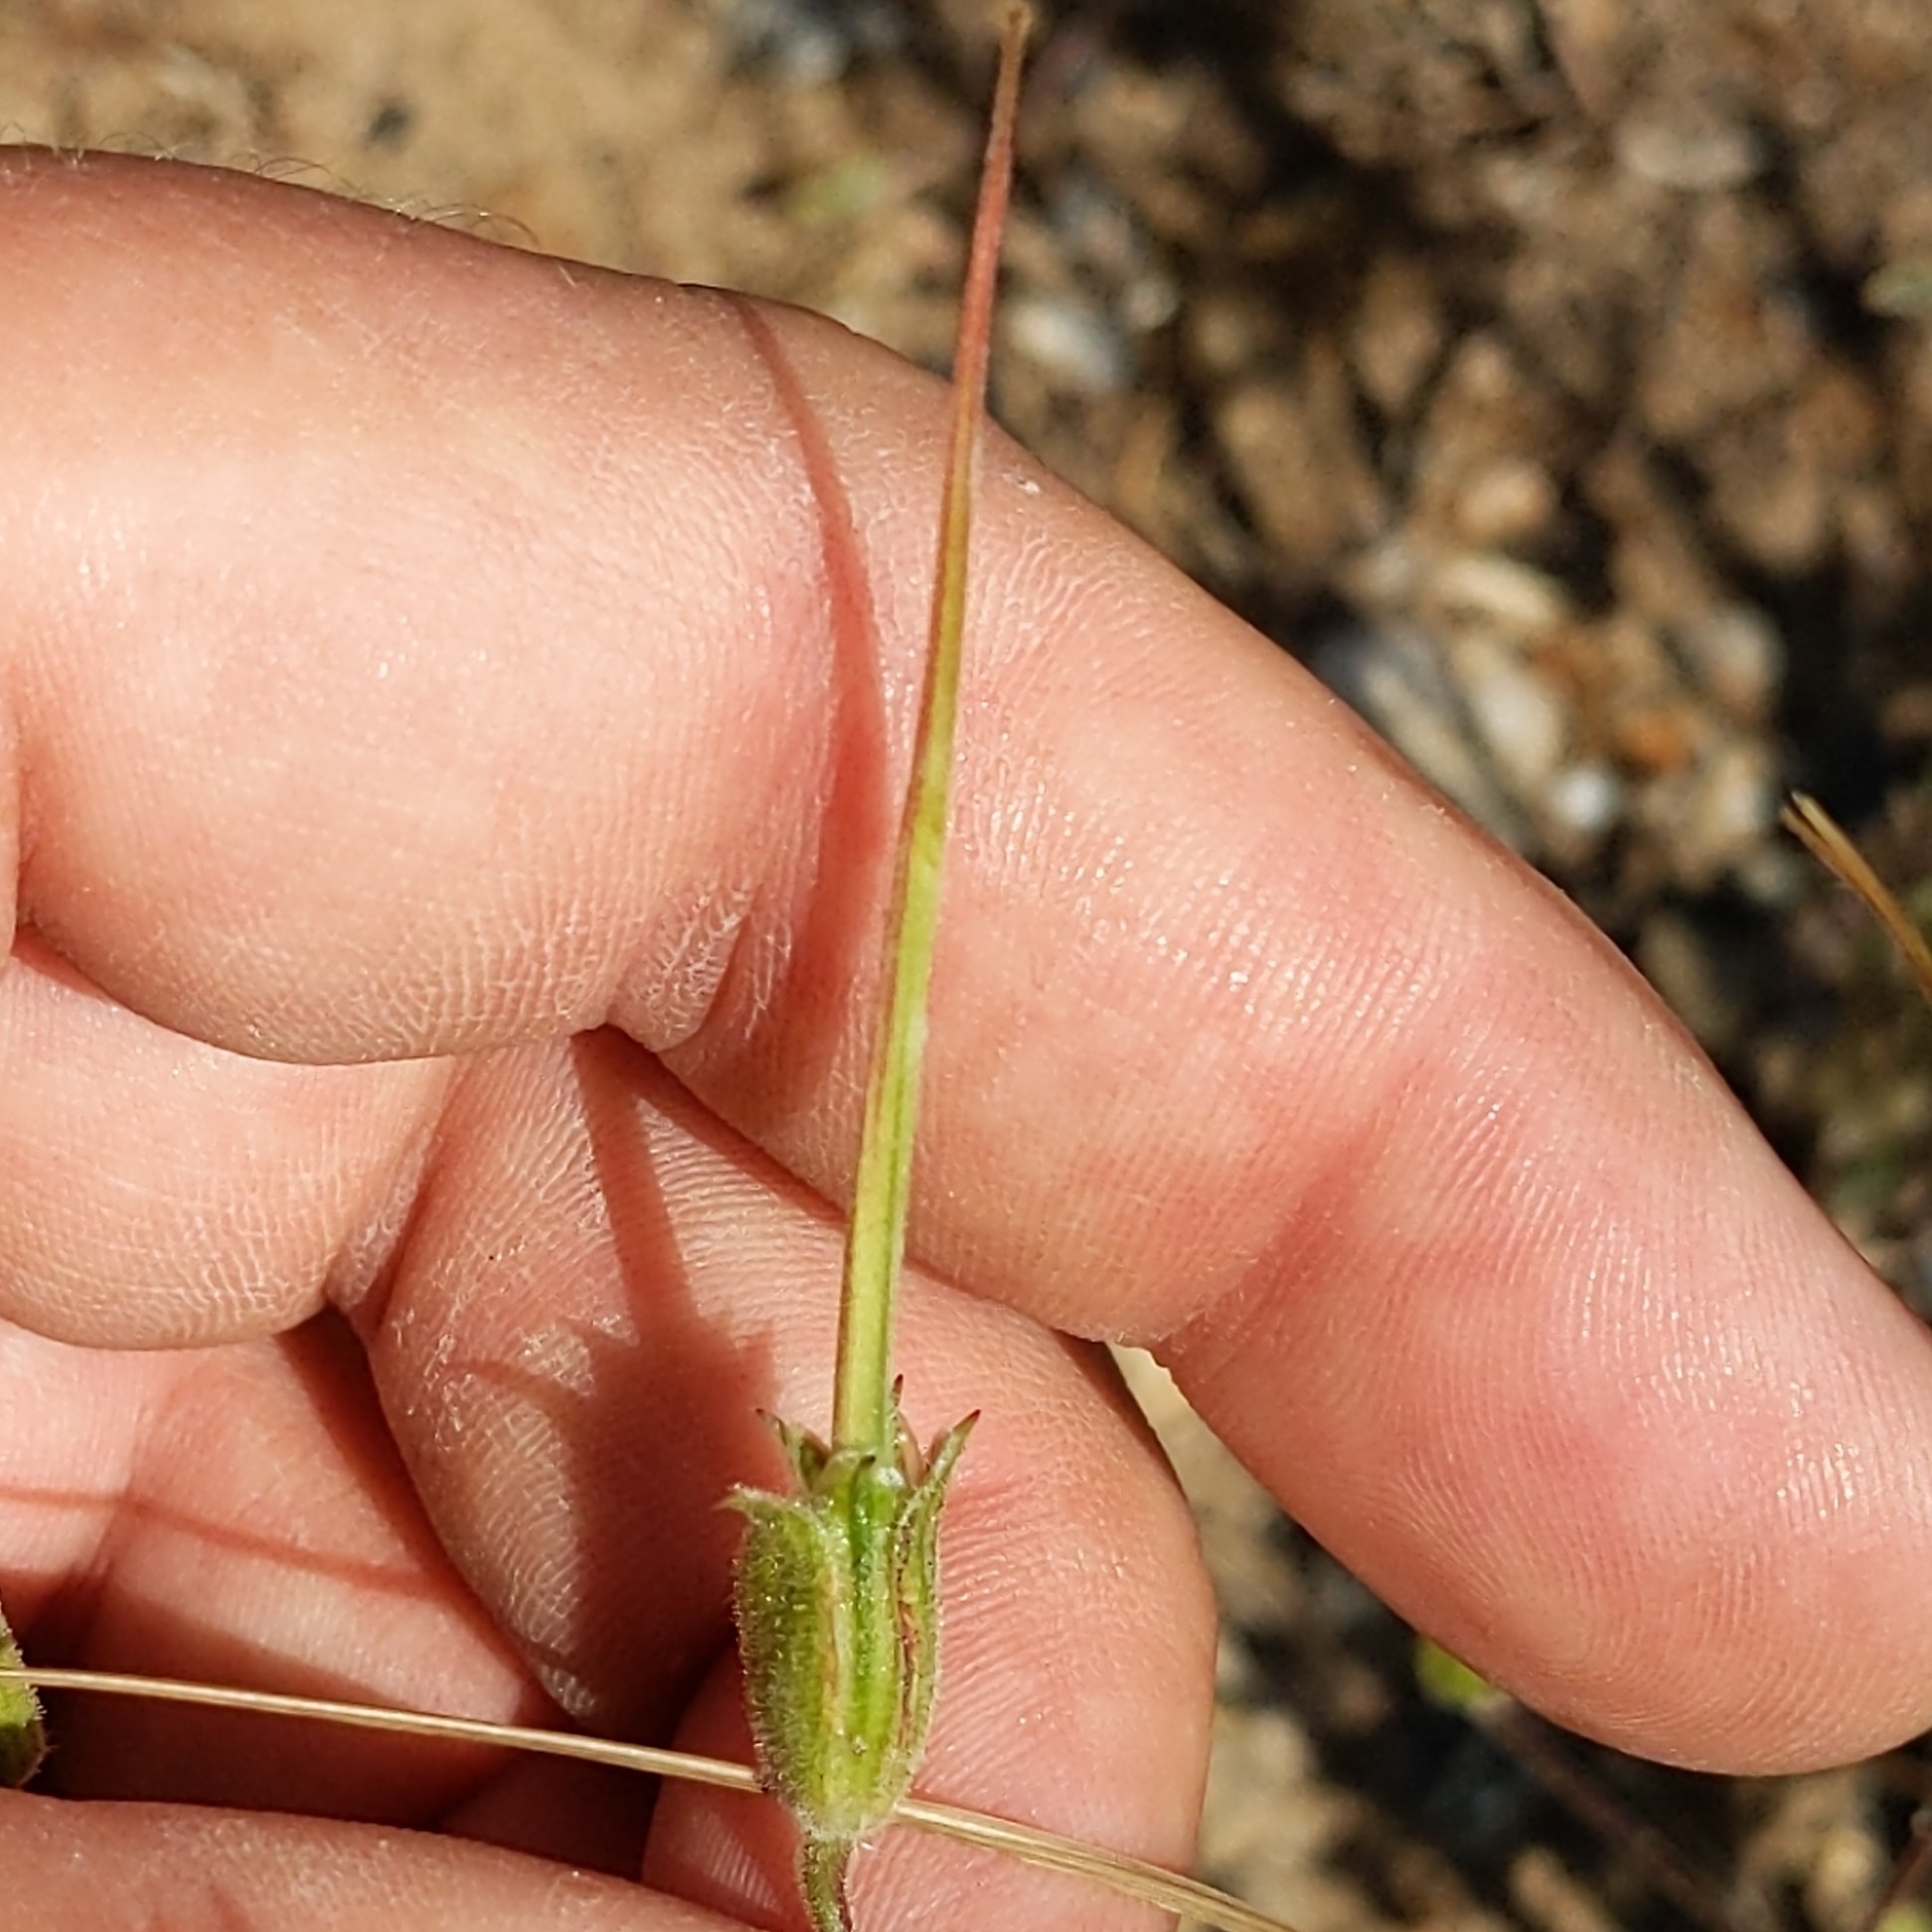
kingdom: Plantae
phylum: Tracheophyta
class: Magnoliopsida
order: Geraniales
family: Geraniaceae
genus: Erodium
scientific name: Erodium botrys
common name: Mediterranean stork's-bill
